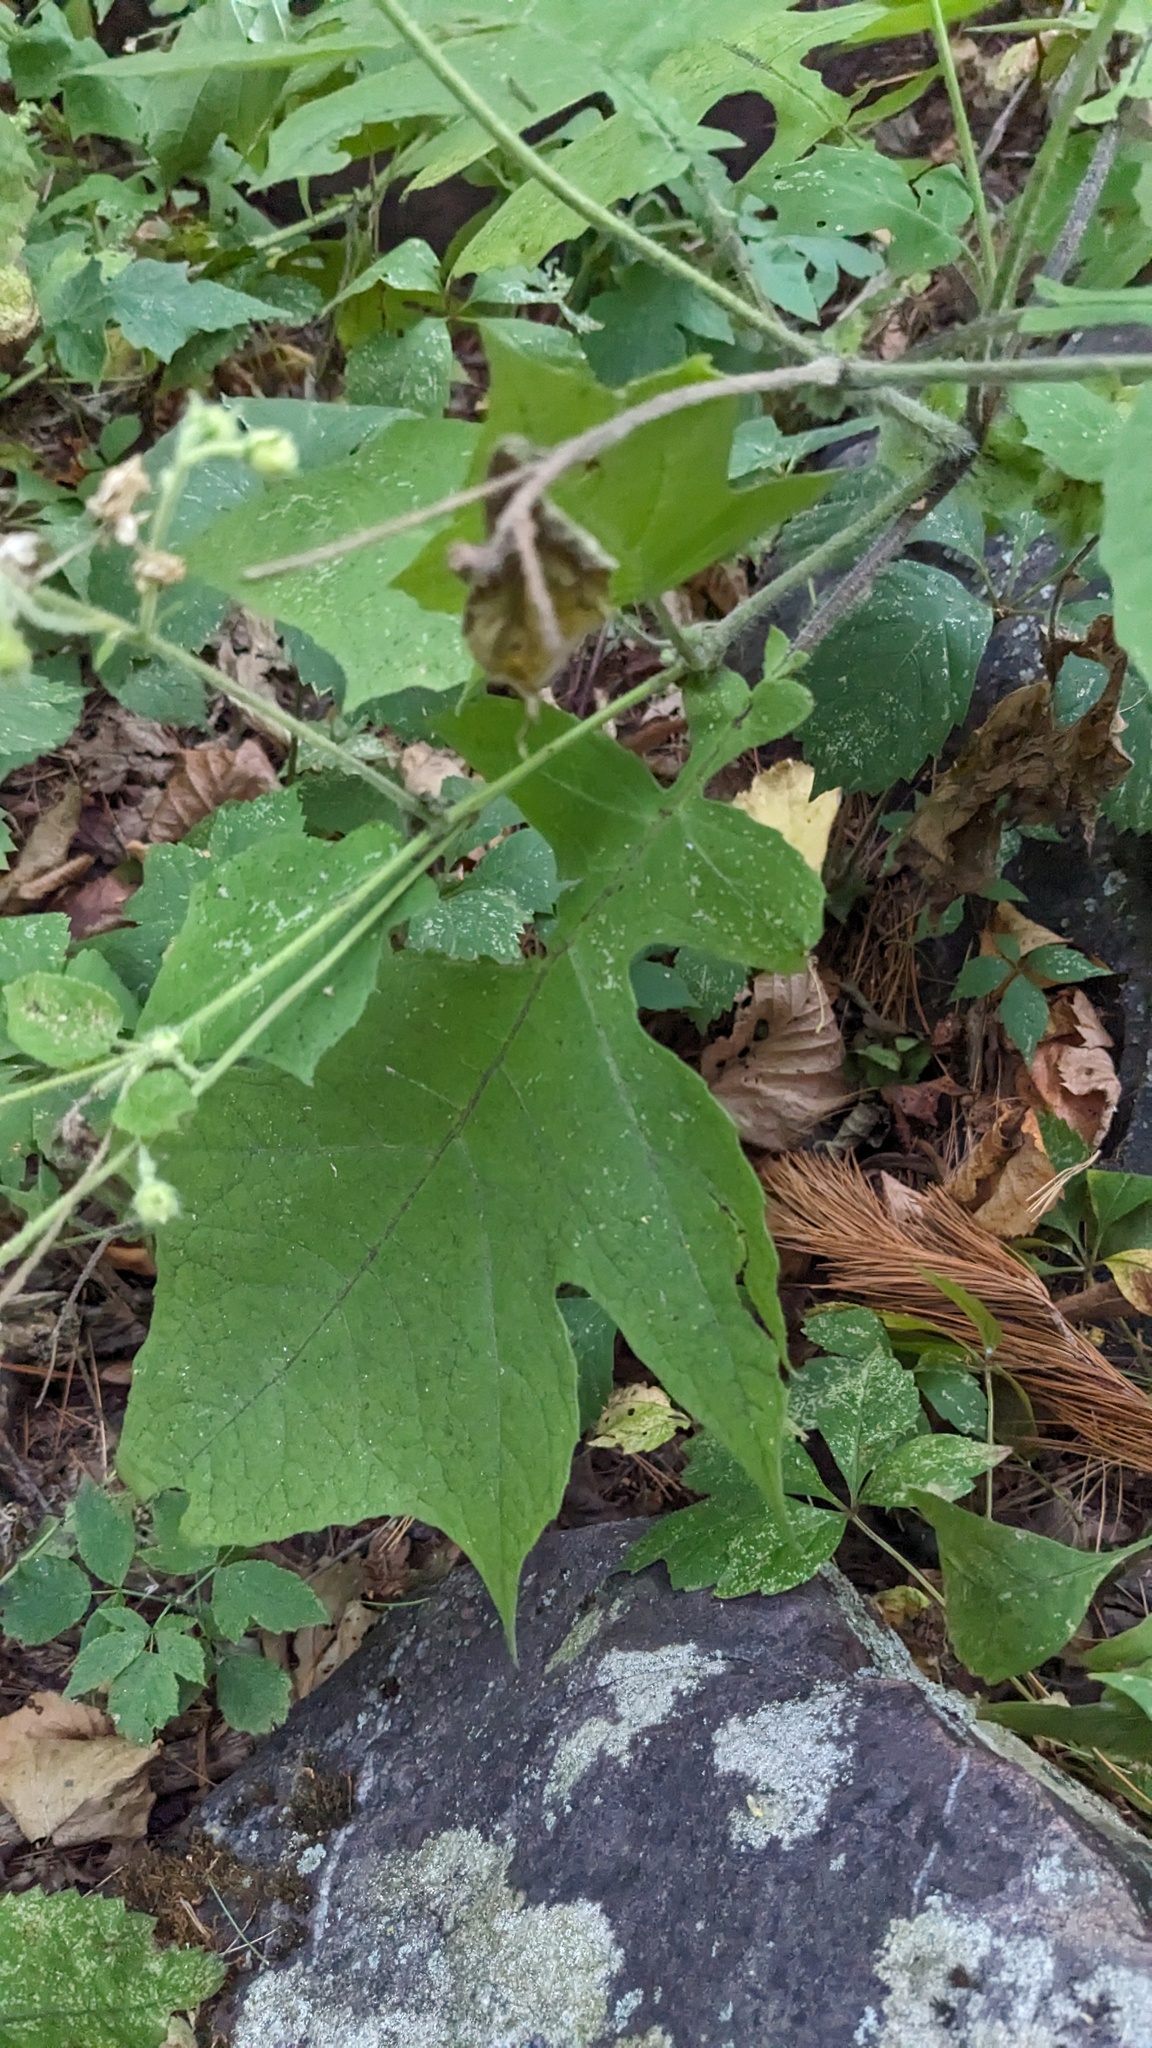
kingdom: Plantae
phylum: Tracheophyta
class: Magnoliopsida
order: Asterales
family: Asteraceae
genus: Polymnia
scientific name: Polymnia canadensis
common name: Pale-flowered leafcup
